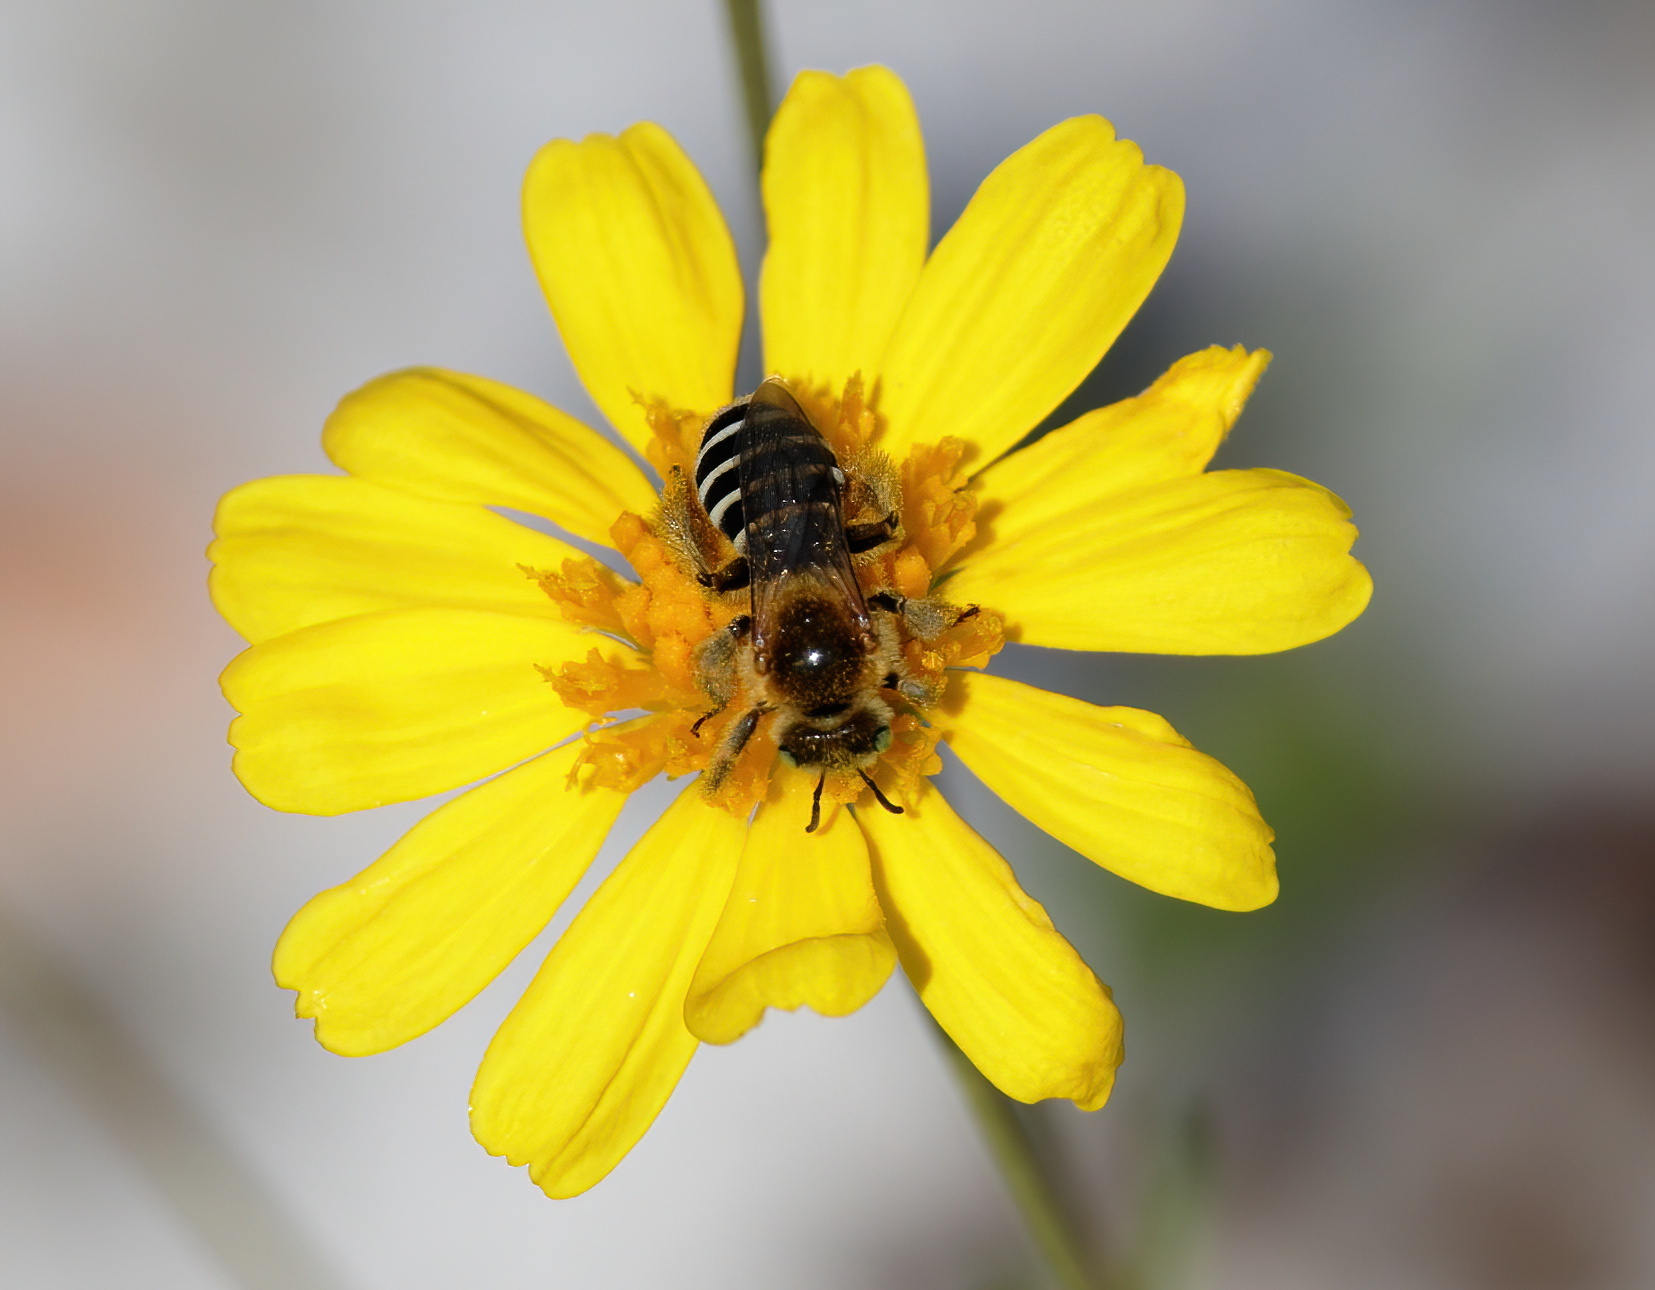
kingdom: Animalia
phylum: Arthropoda
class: Insecta
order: Hymenoptera
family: Melittidae
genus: Hesperapis
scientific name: Hesperapis oraria
